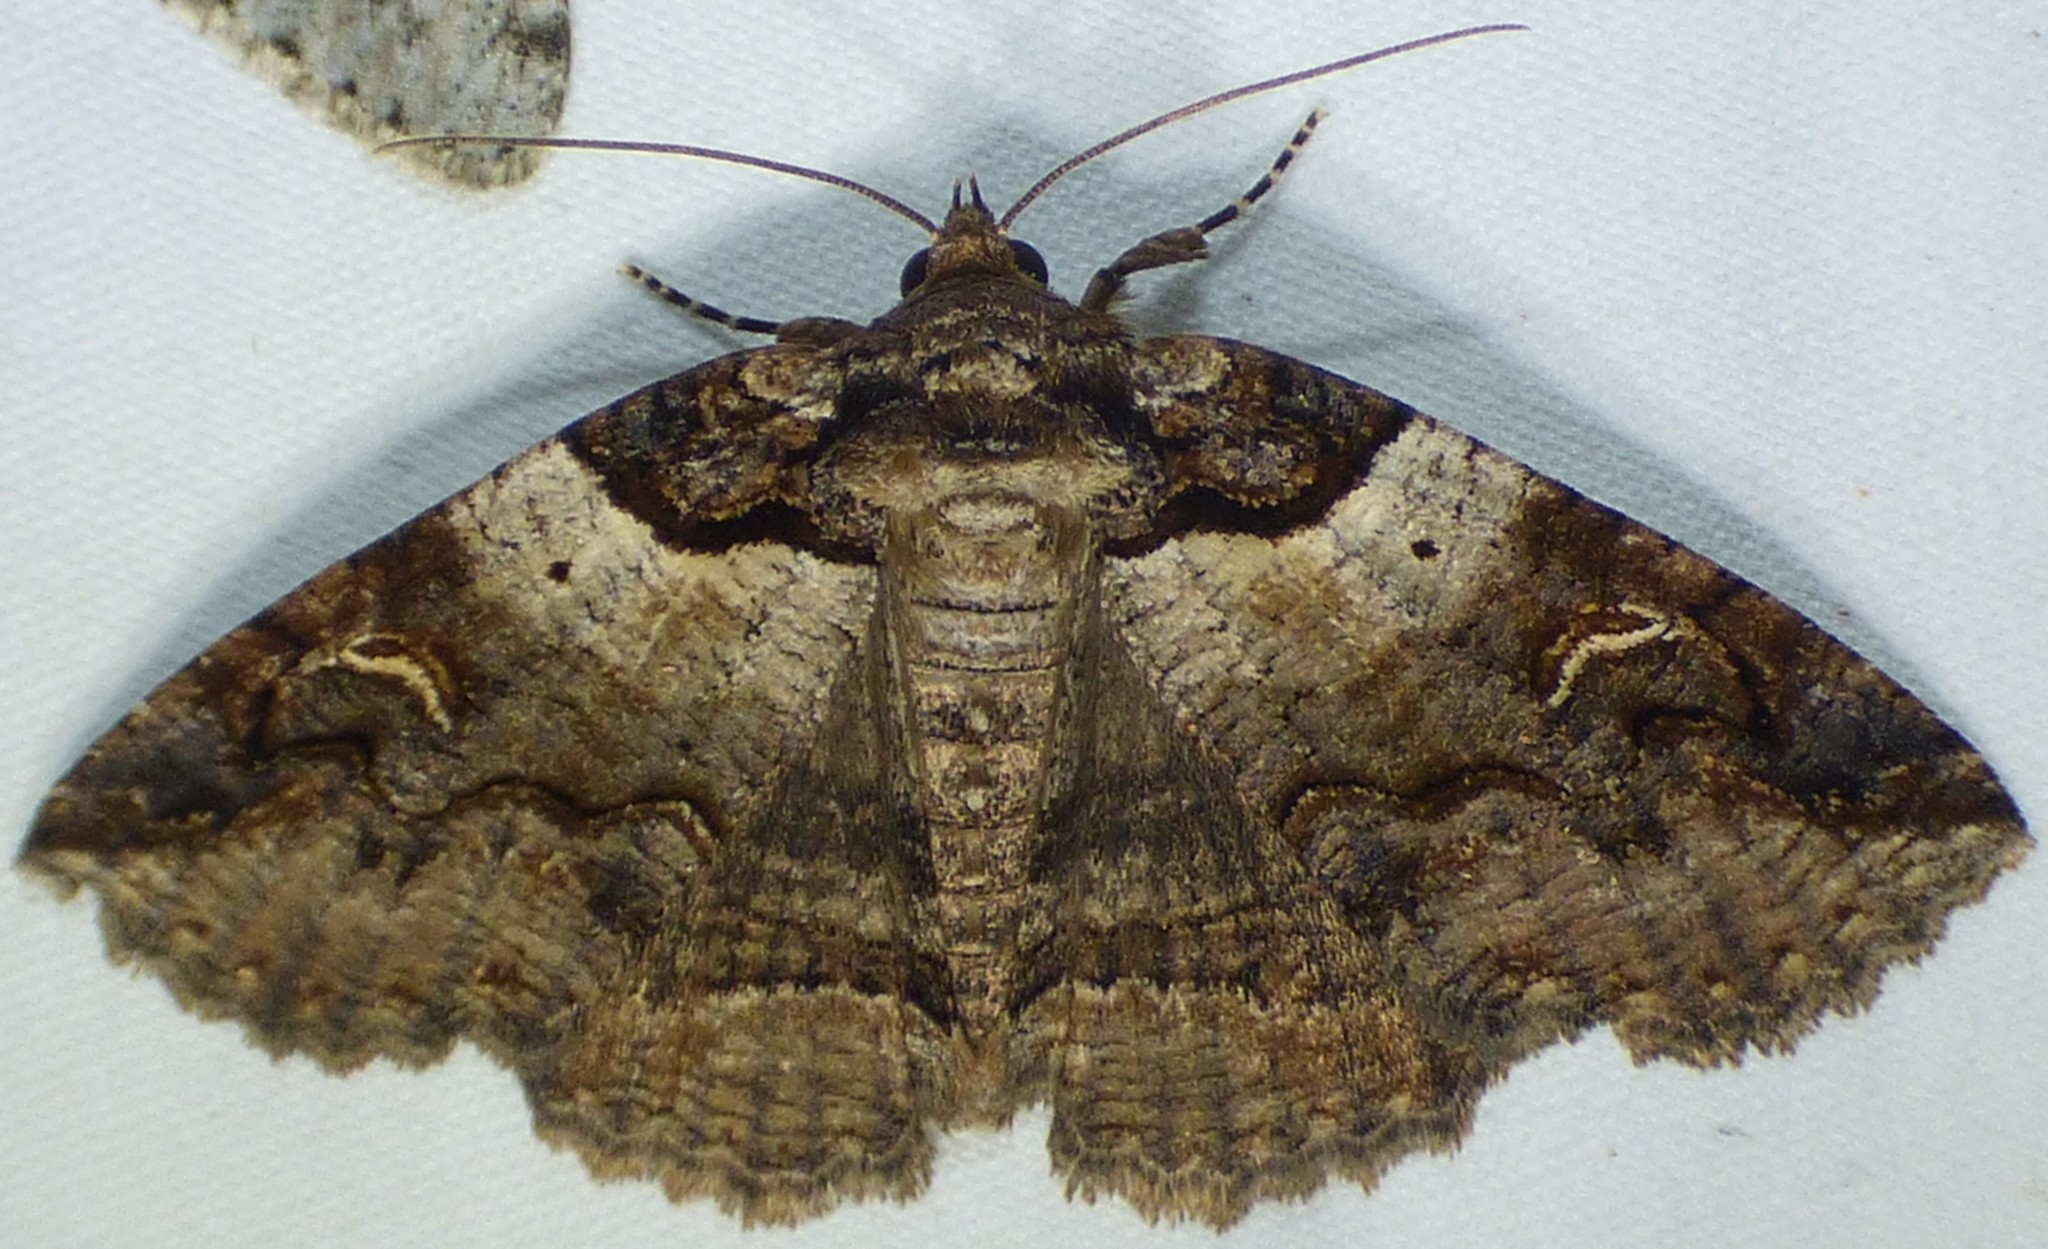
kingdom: Animalia
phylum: Arthropoda
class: Insecta
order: Lepidoptera
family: Erebidae
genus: Zale
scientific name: Zale intenta
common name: Intent zale moth
